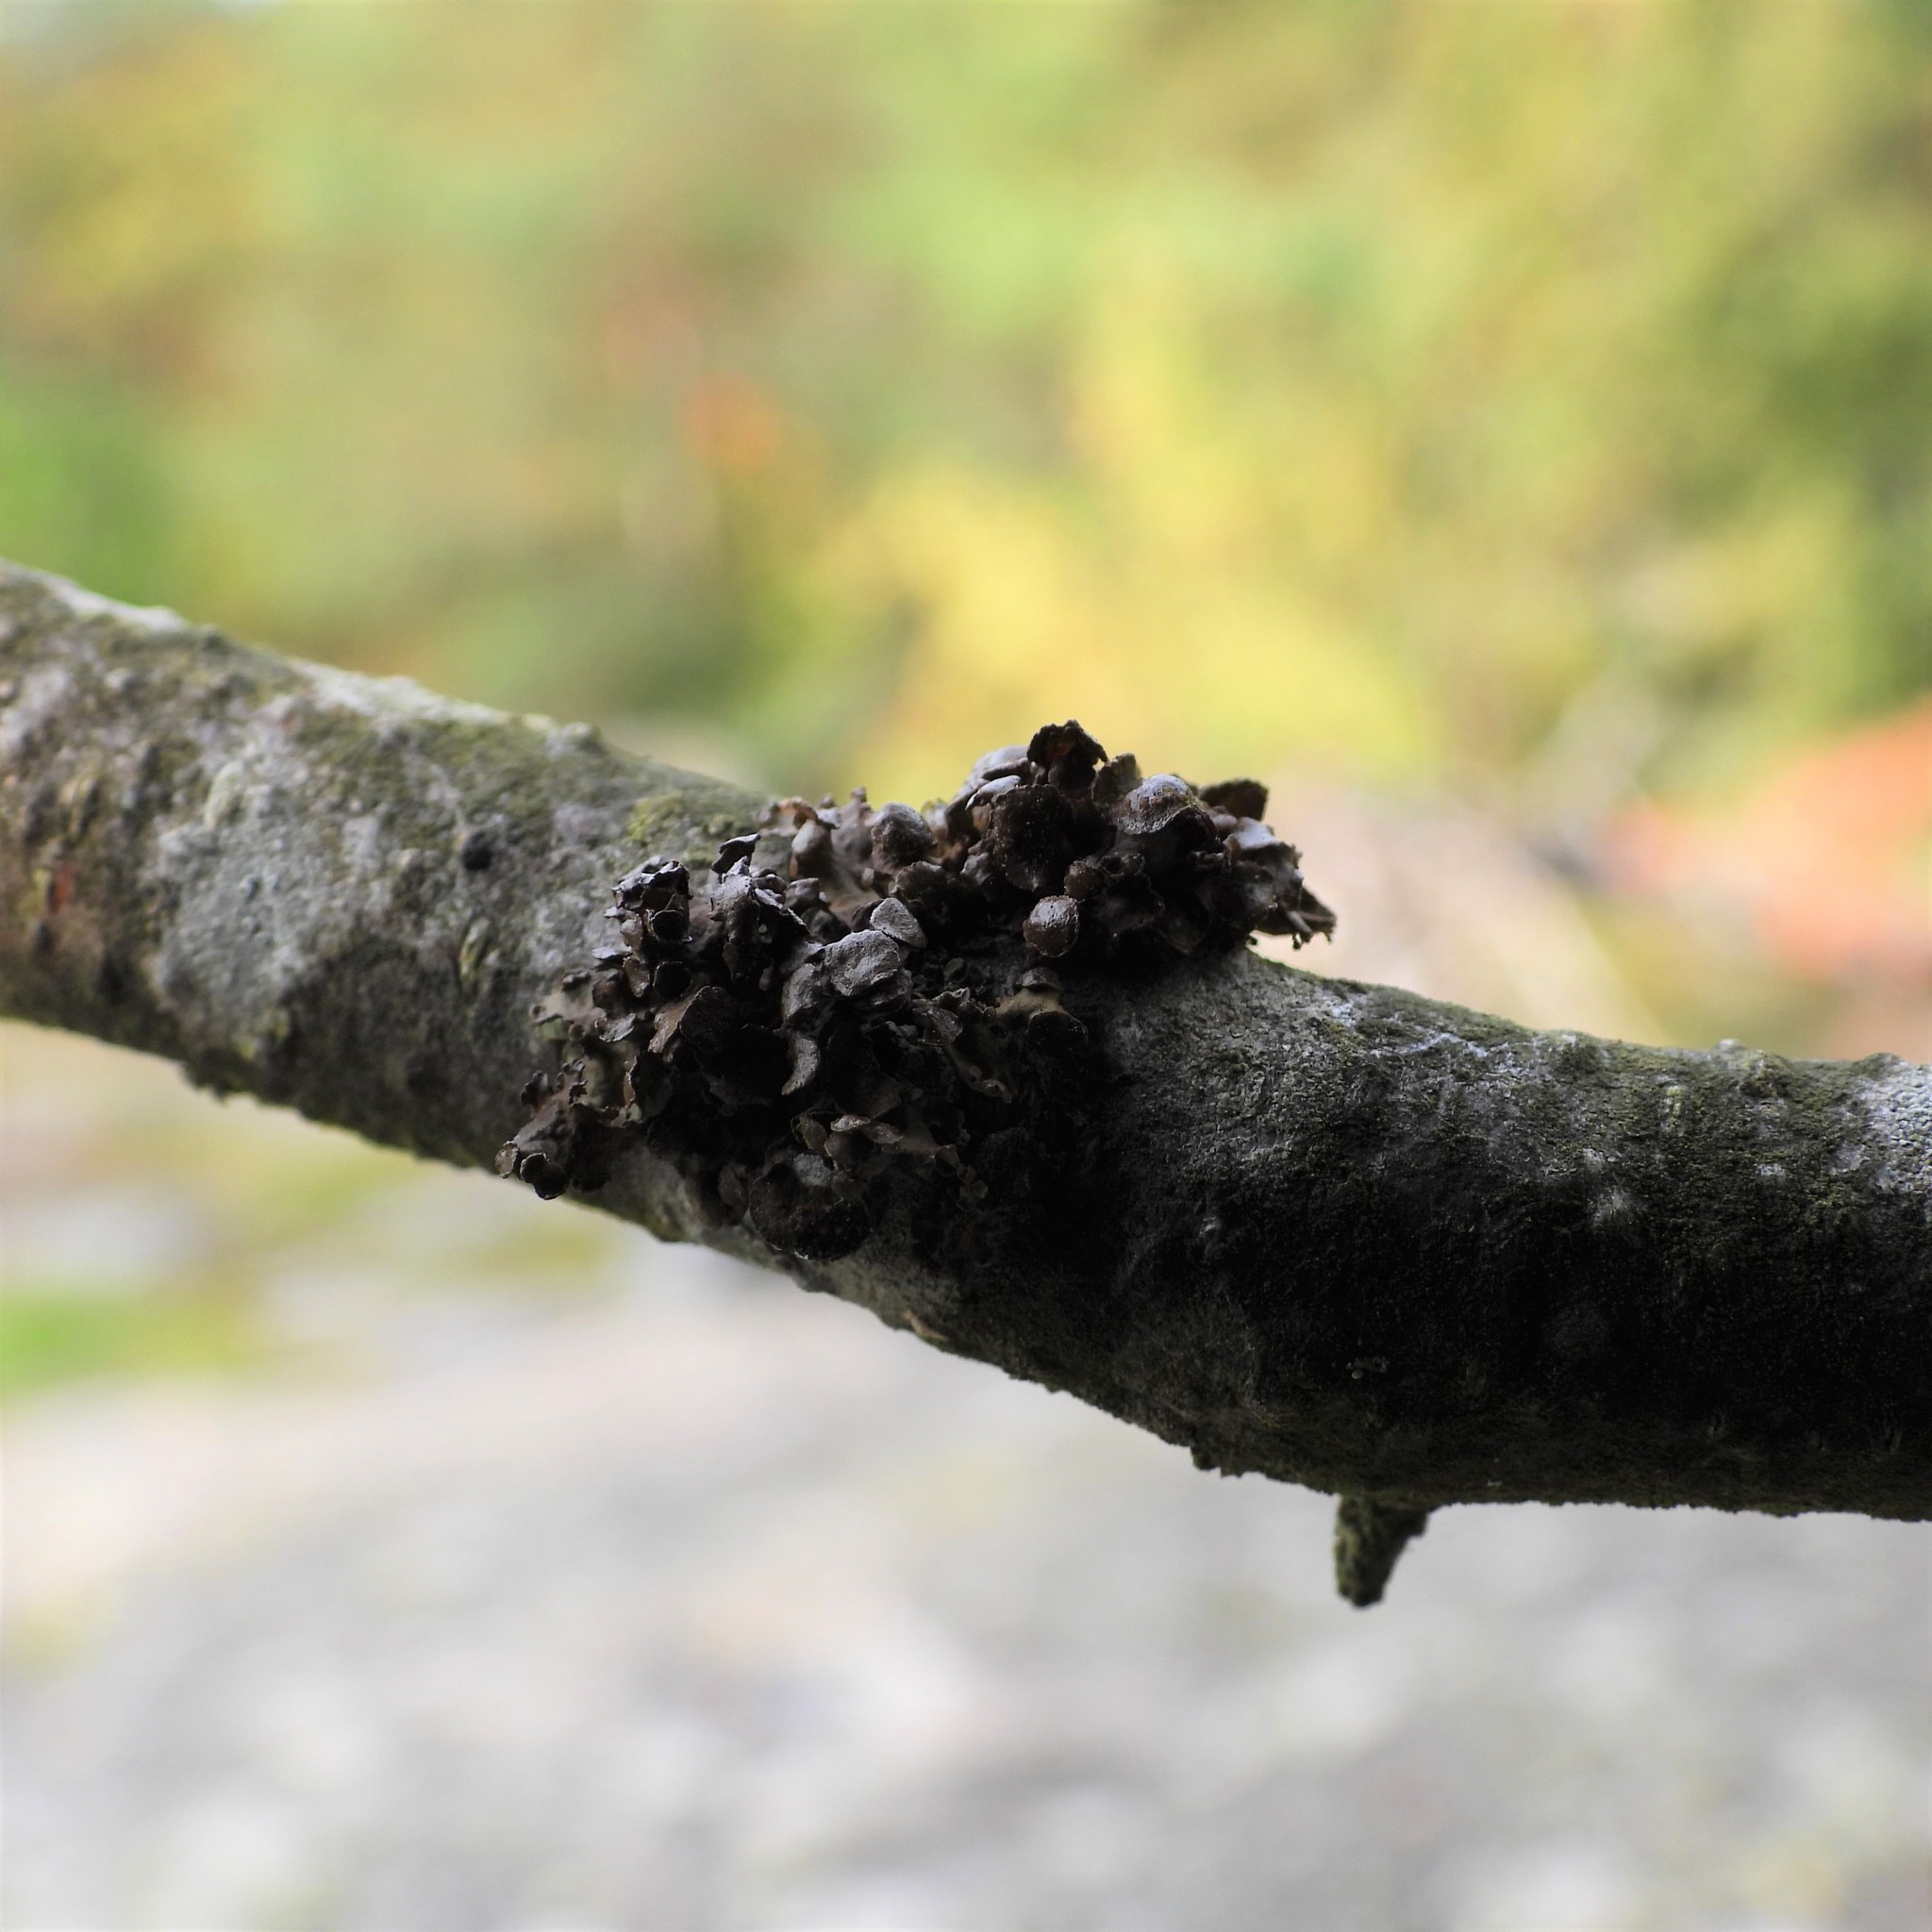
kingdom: Fungi
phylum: Ascomycota
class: Lecanoromycetes
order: Lecanorales
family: Parmeliaceae
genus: Cetraria
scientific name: Cetraria sepincola
